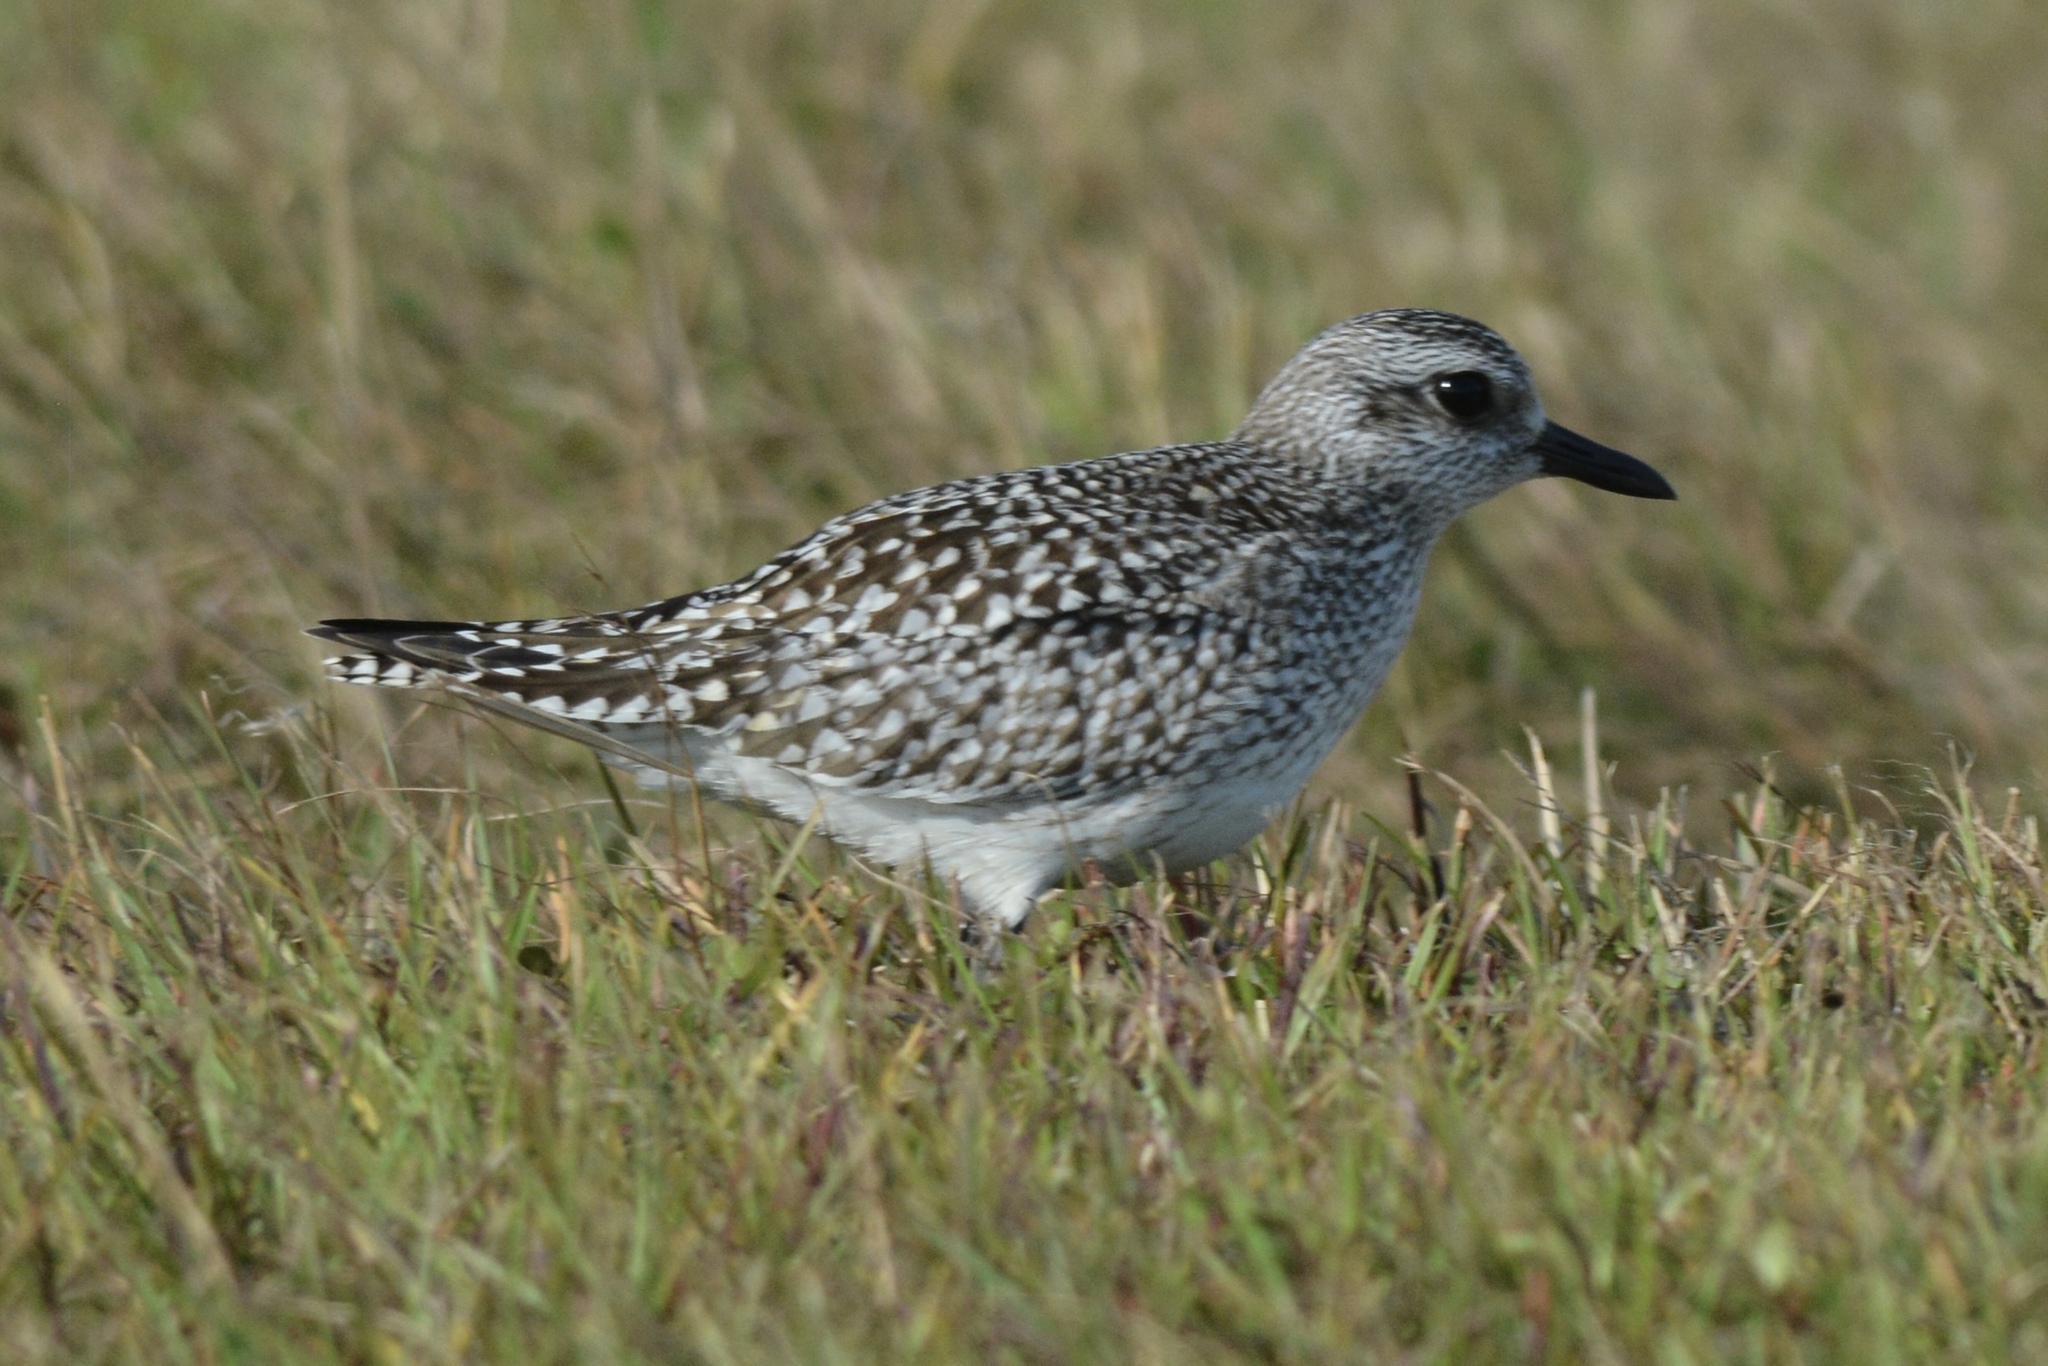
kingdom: Animalia
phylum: Chordata
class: Aves
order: Charadriiformes
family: Charadriidae
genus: Pluvialis
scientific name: Pluvialis squatarola
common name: Grey plover
